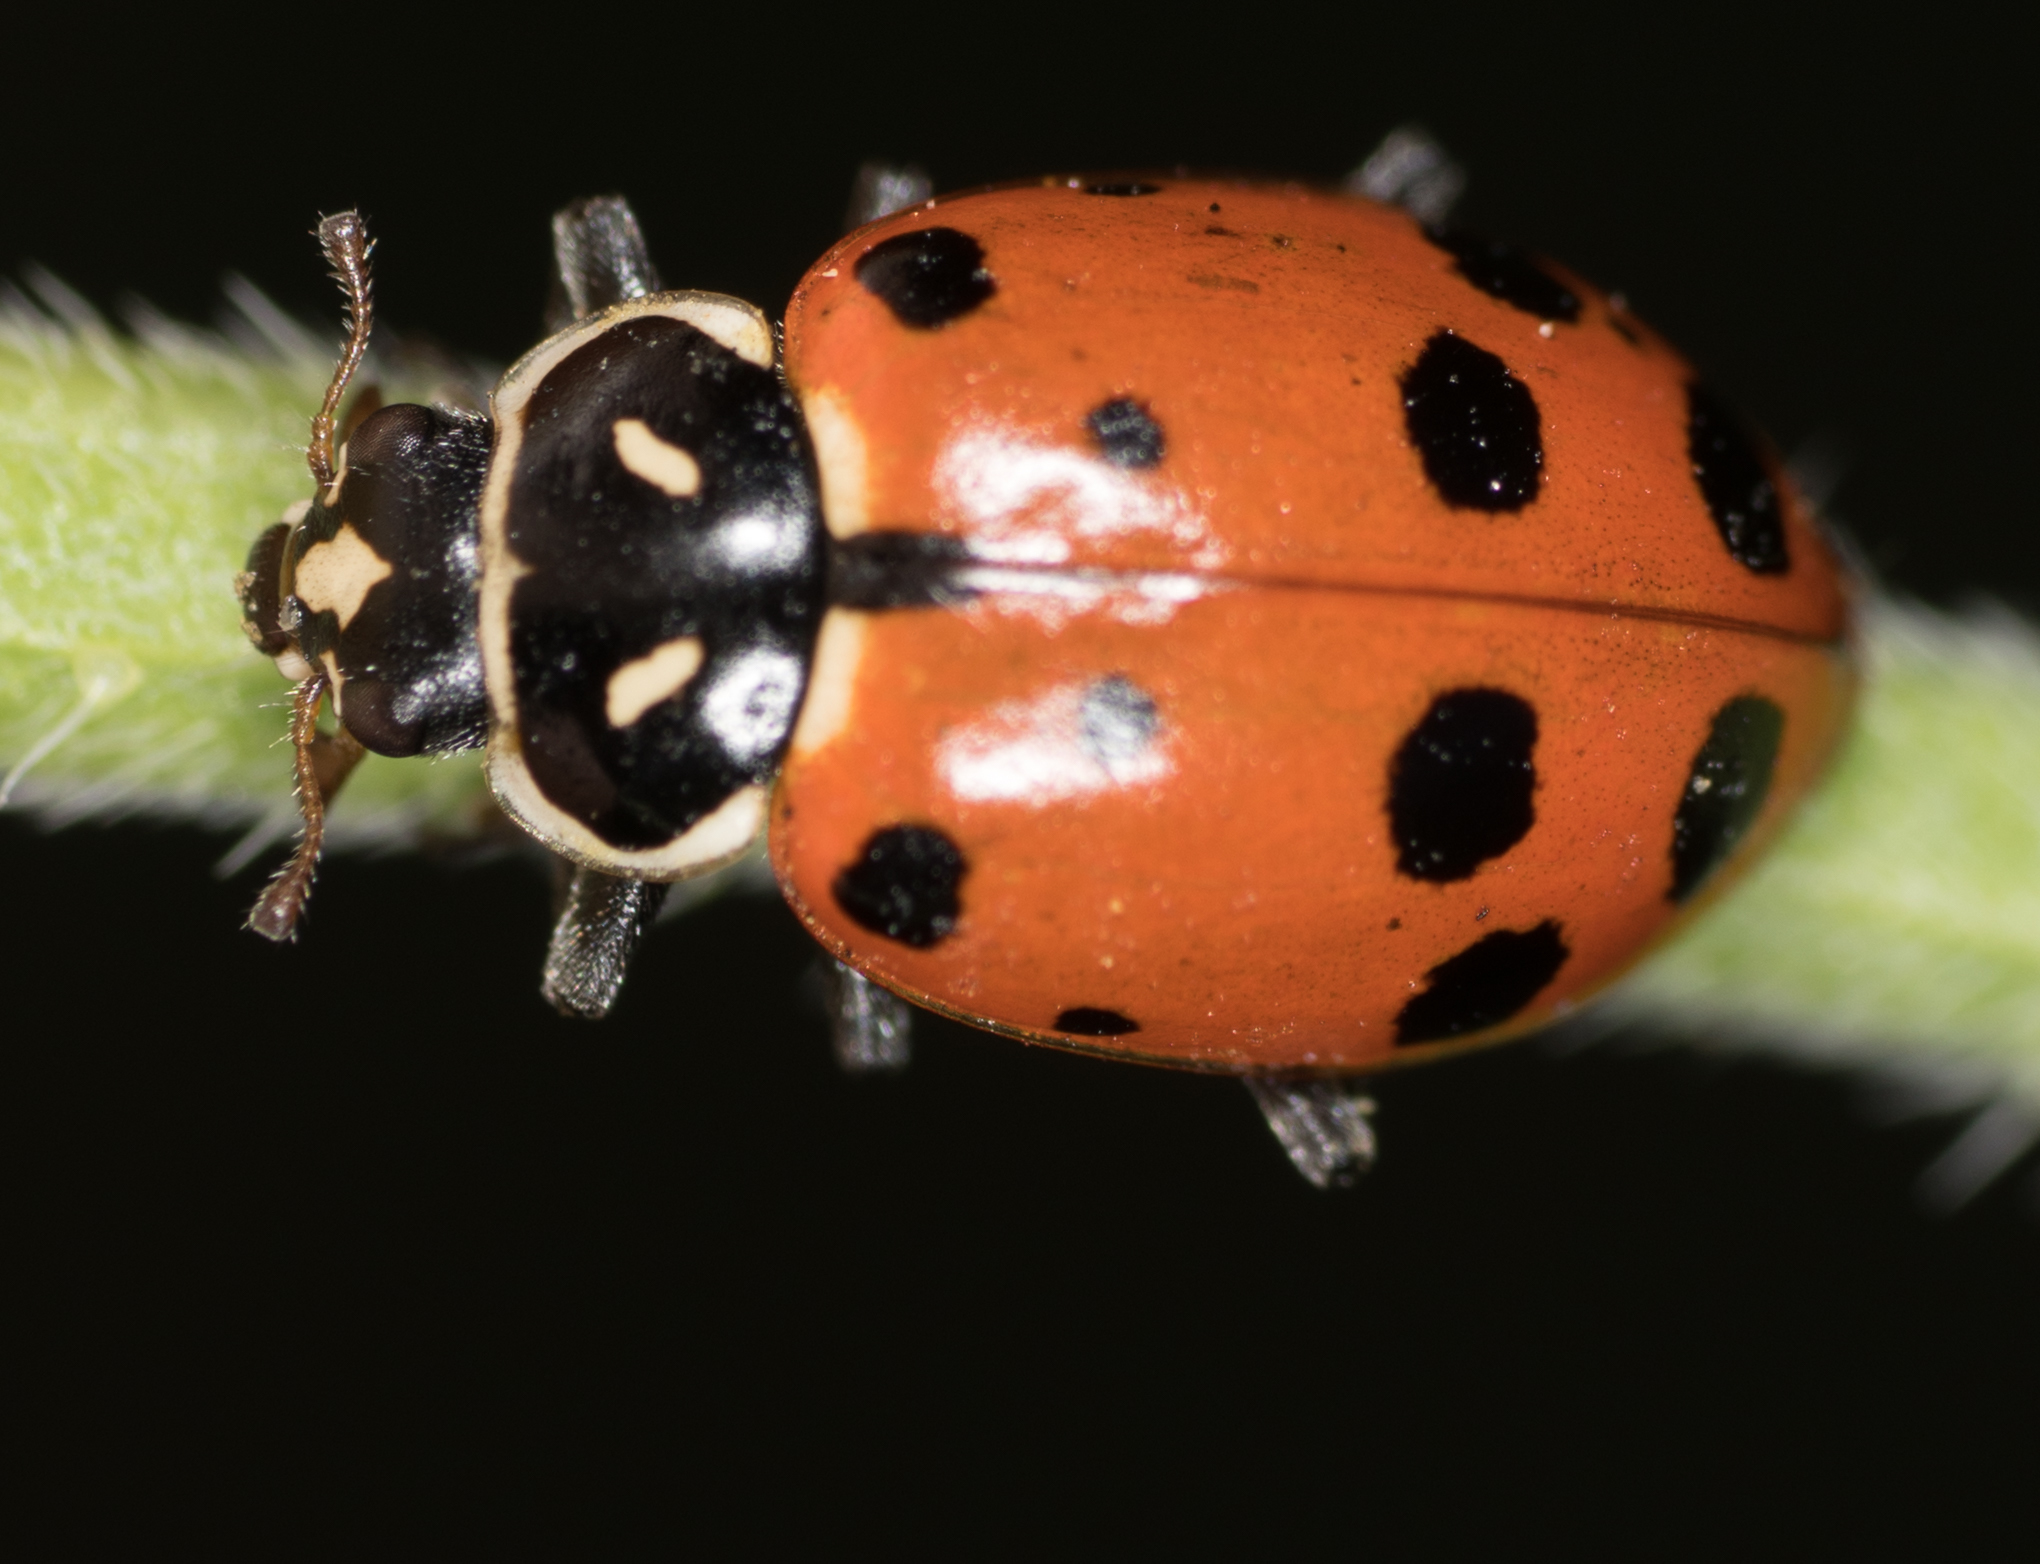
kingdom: Animalia
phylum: Arthropoda
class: Insecta
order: Coleoptera
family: Coccinellidae
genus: Hippodamia
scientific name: Hippodamia convergens
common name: Convergent lady beetle
